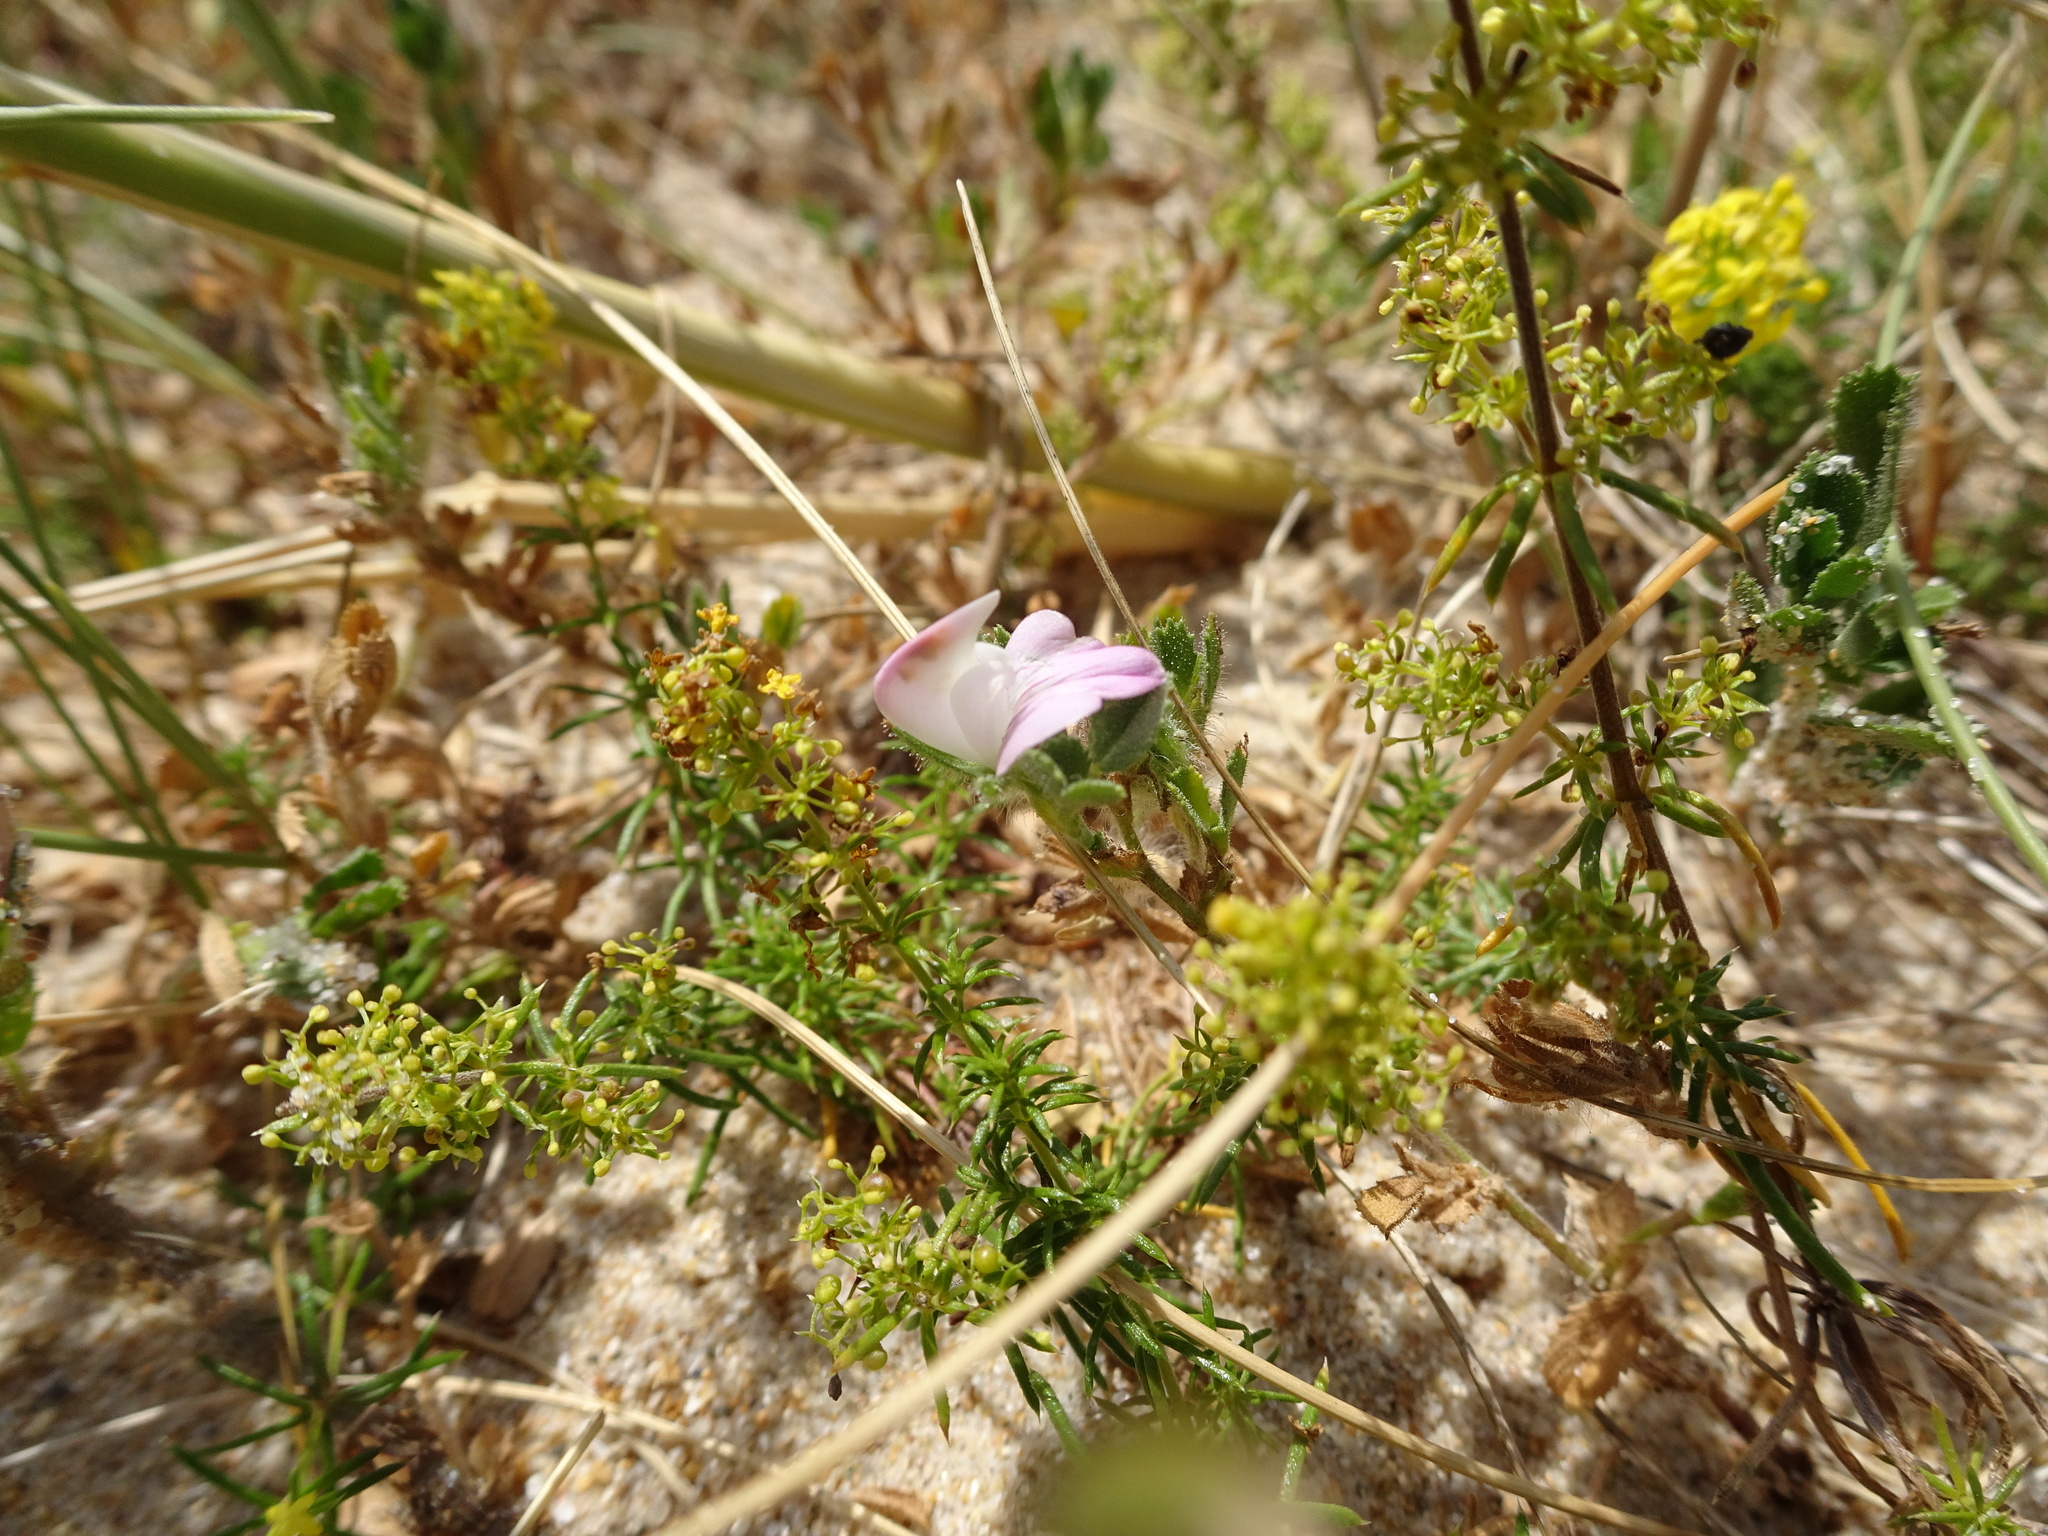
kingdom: Plantae
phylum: Tracheophyta
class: Magnoliopsida
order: Fabales
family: Fabaceae
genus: Ononis
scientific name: Ononis spinosa
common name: Spiny restharrow
